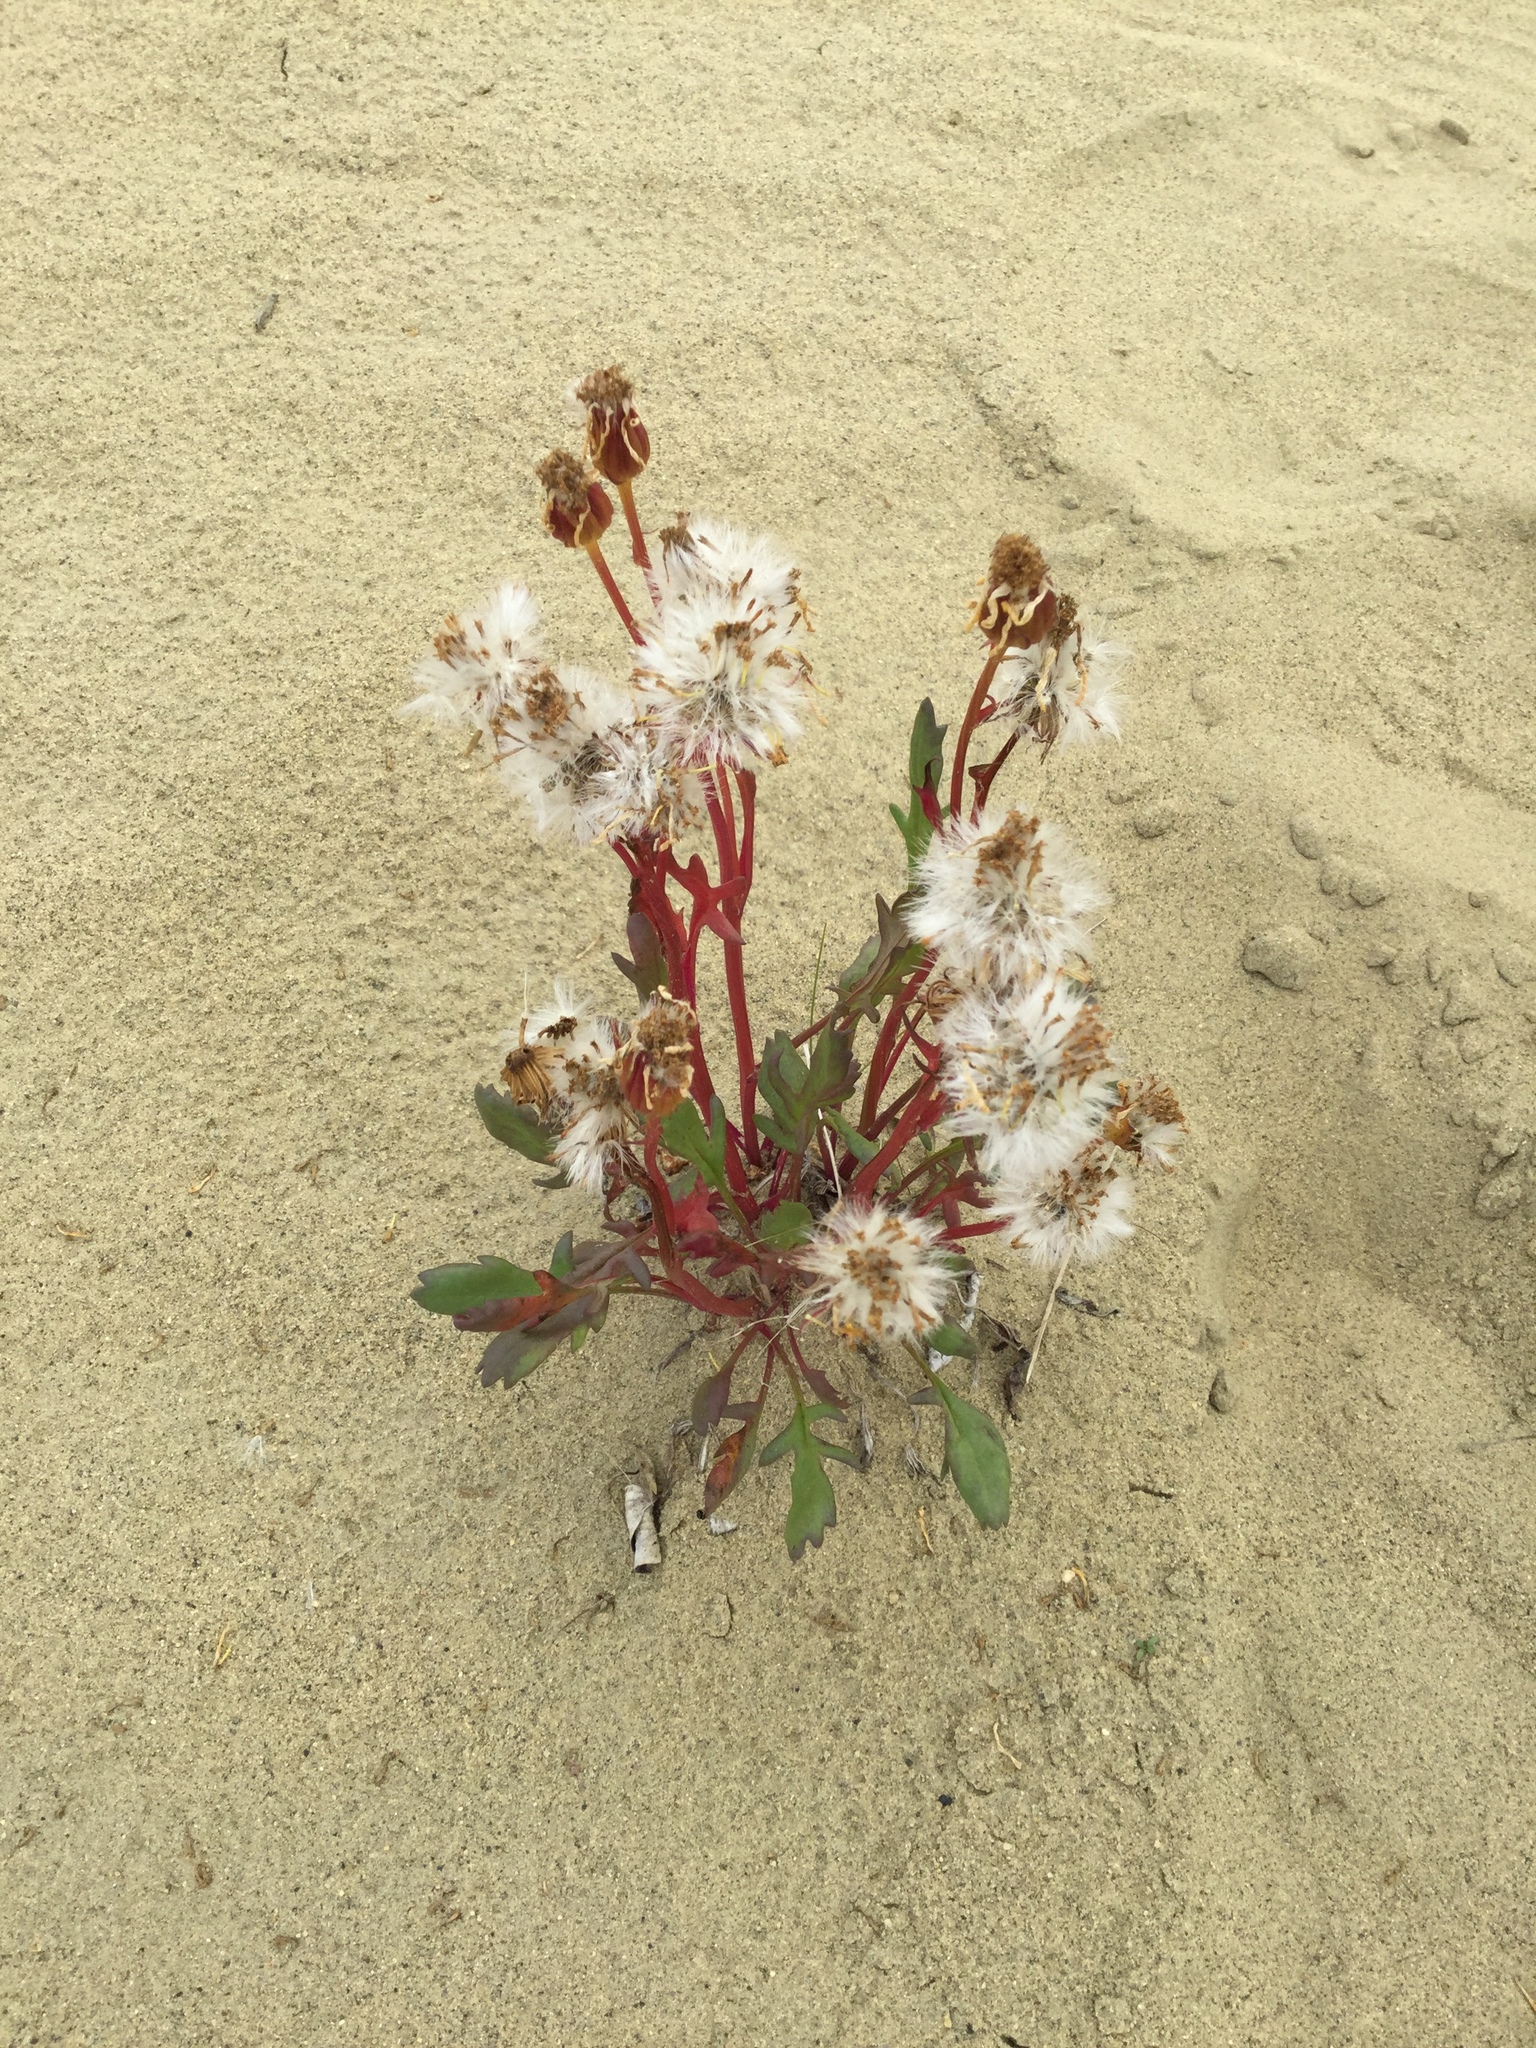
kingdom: Plantae
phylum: Tracheophyta
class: Magnoliopsida
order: Asterales
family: Asteraceae
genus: Packera
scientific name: Packera cymbalaria
